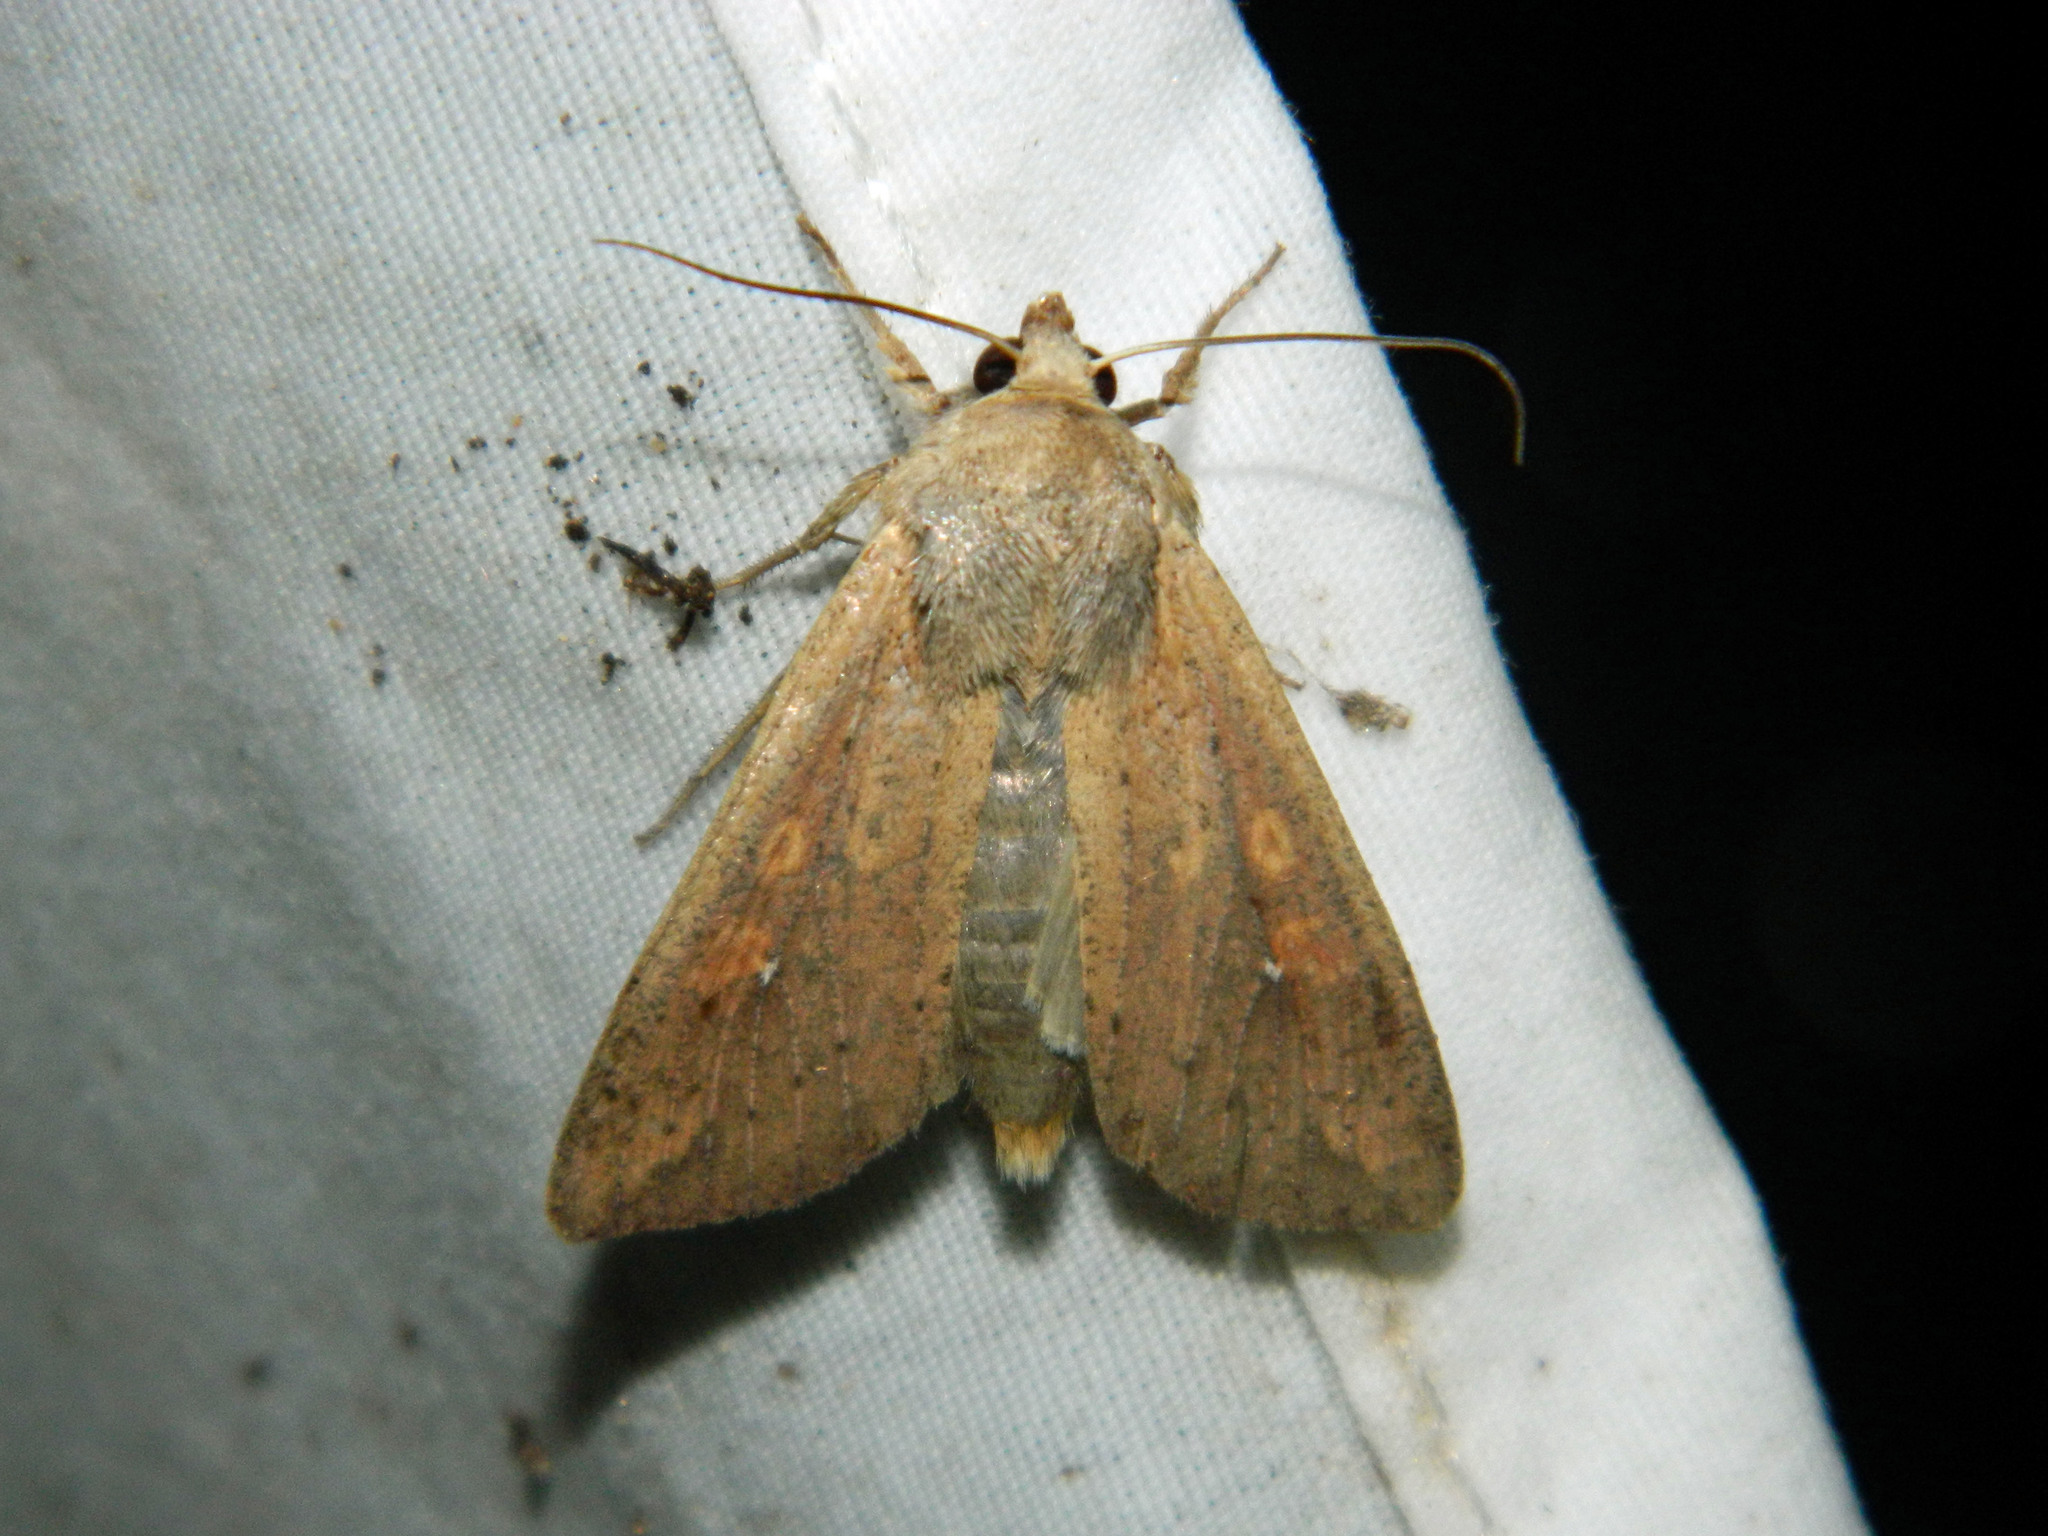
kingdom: Animalia
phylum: Arthropoda
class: Insecta
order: Lepidoptera
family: Noctuidae
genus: Mythimna
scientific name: Mythimna unipuncta
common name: White-speck
